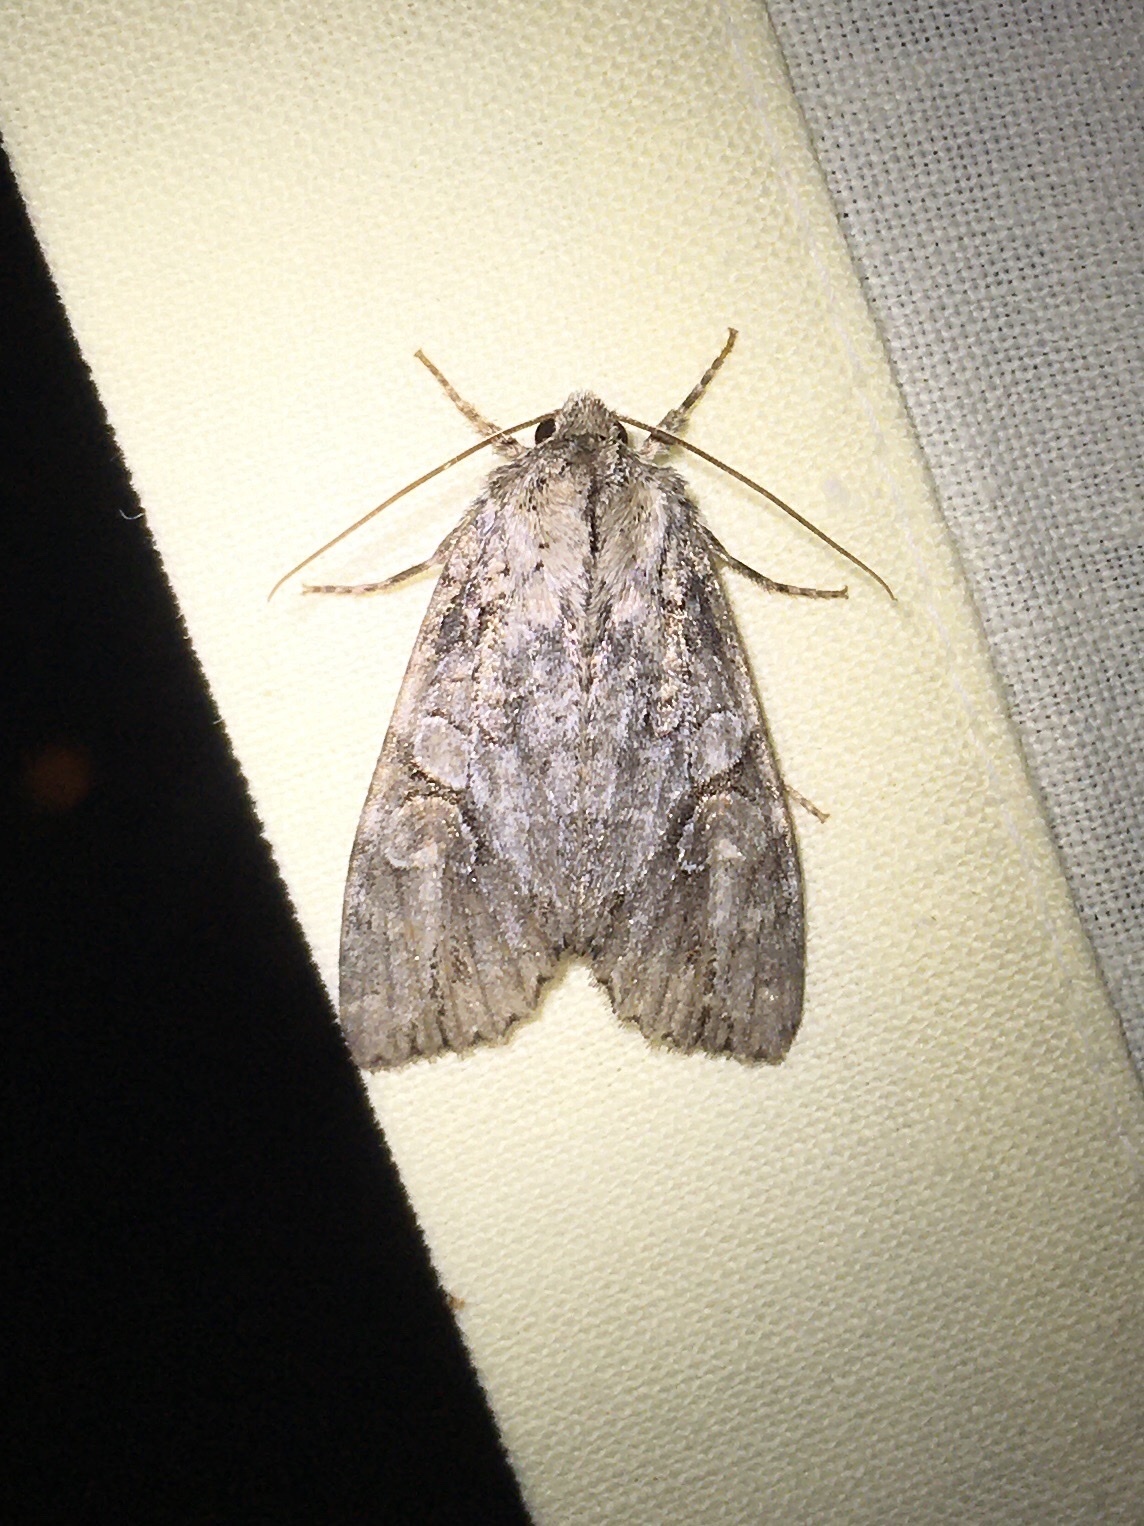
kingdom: Animalia
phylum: Arthropoda
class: Insecta
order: Lepidoptera
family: Noctuidae
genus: Achatia
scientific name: Achatia latex
